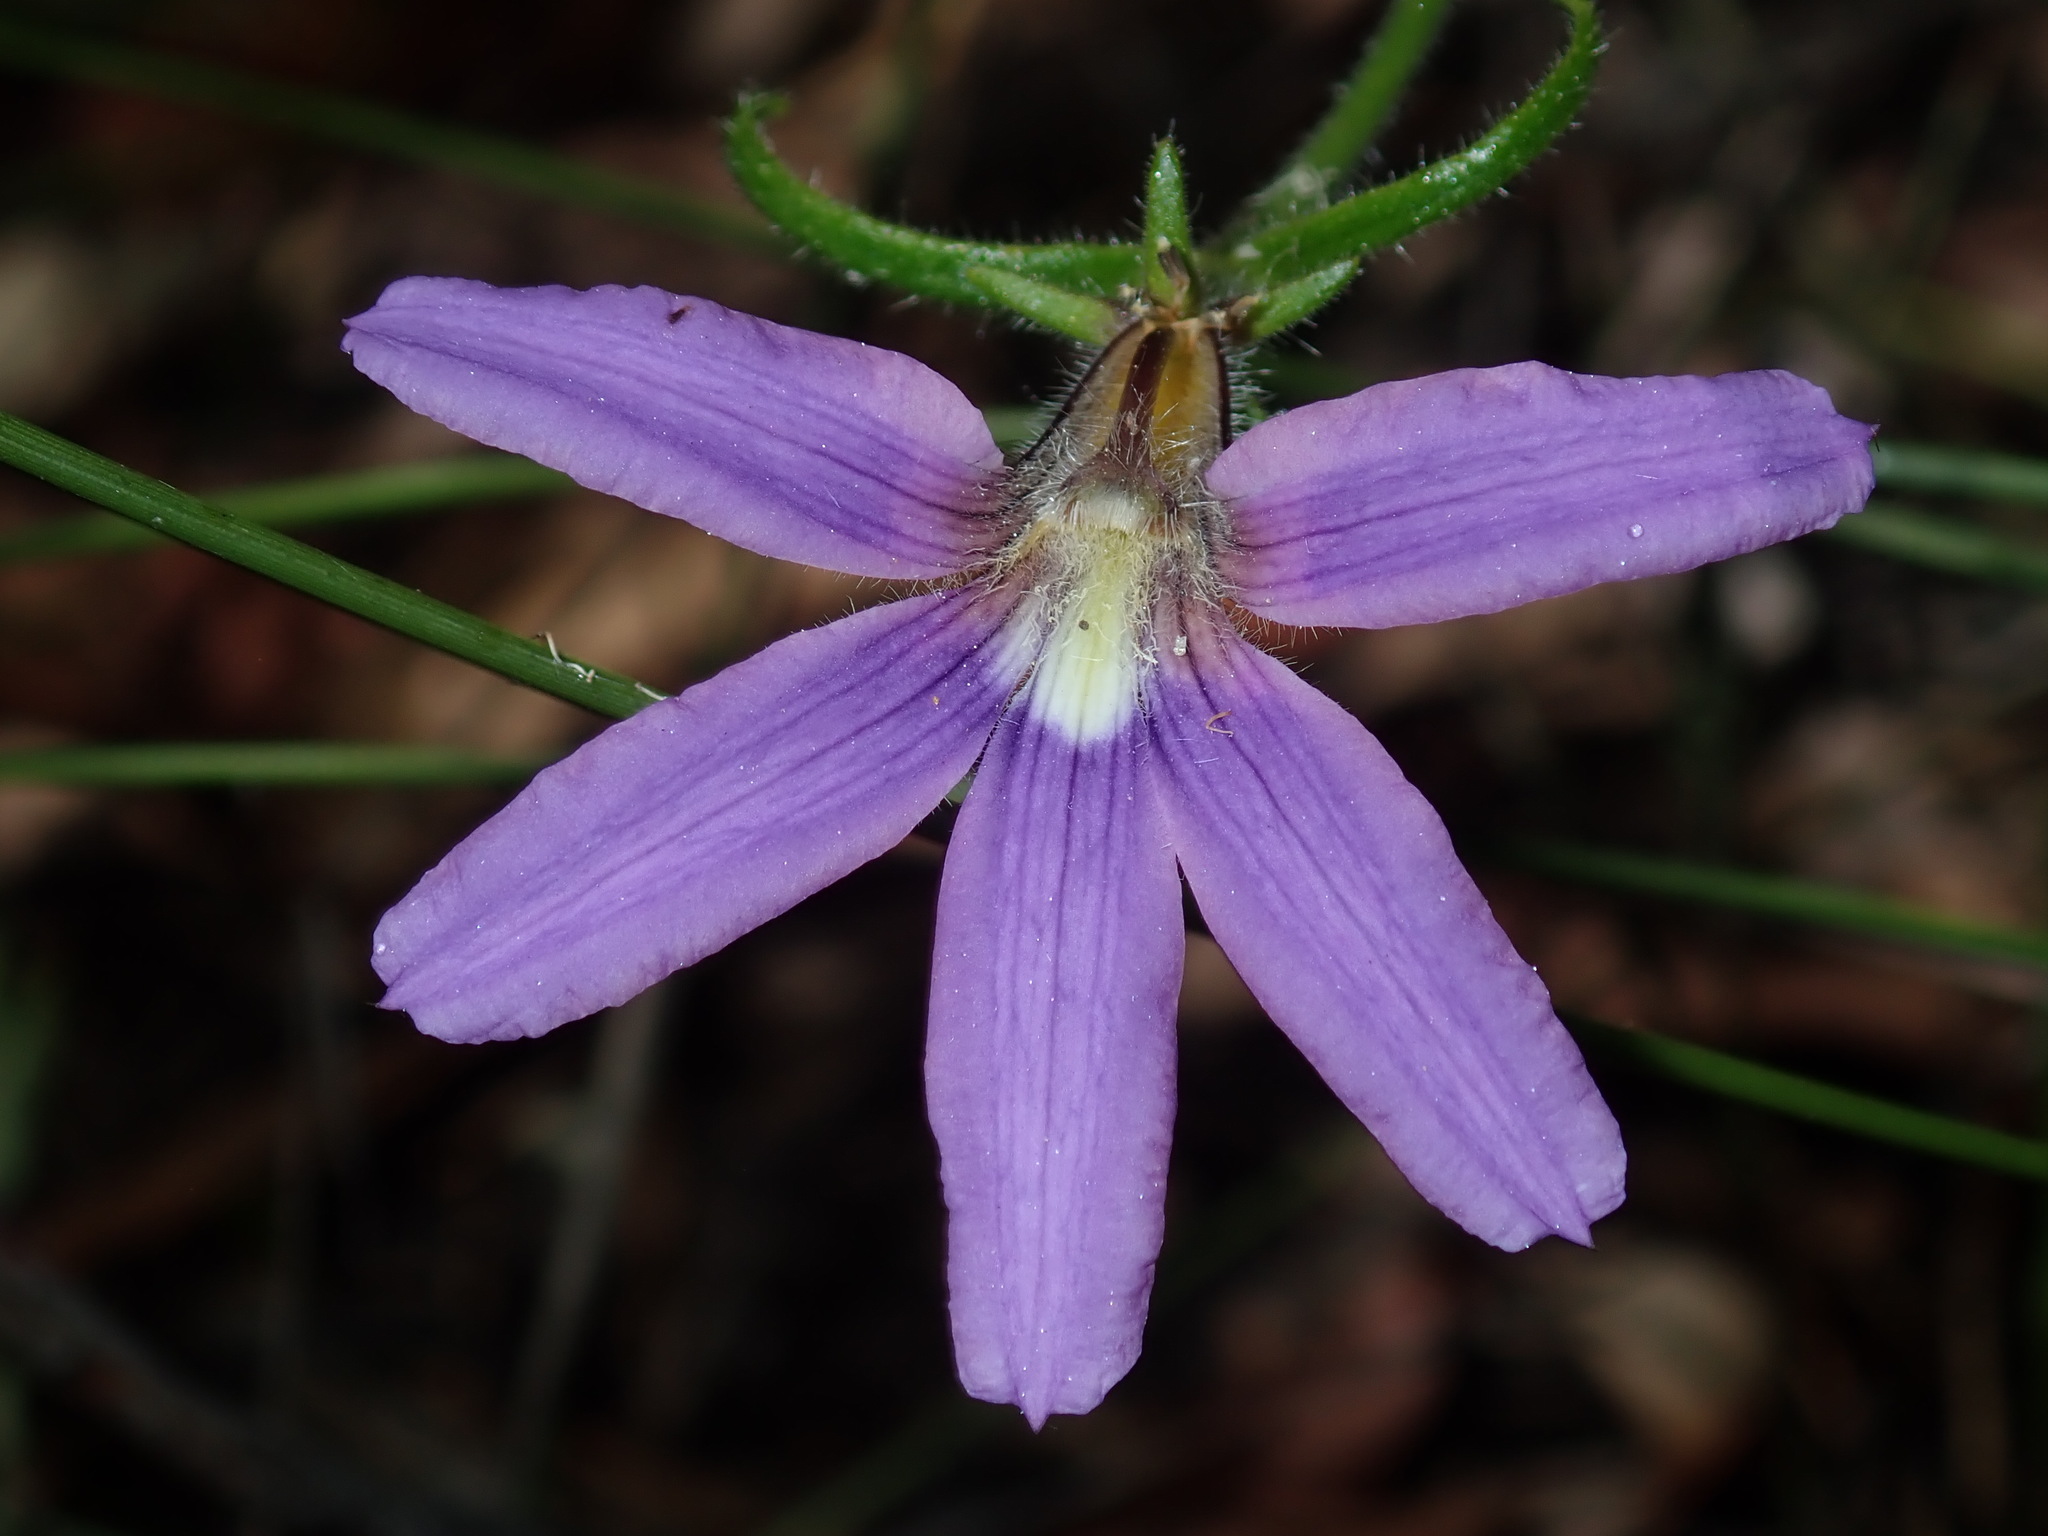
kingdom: Plantae
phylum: Tracheophyta
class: Magnoliopsida
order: Asterales
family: Goodeniaceae
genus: Scaevola
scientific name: Scaevola ramosissima
